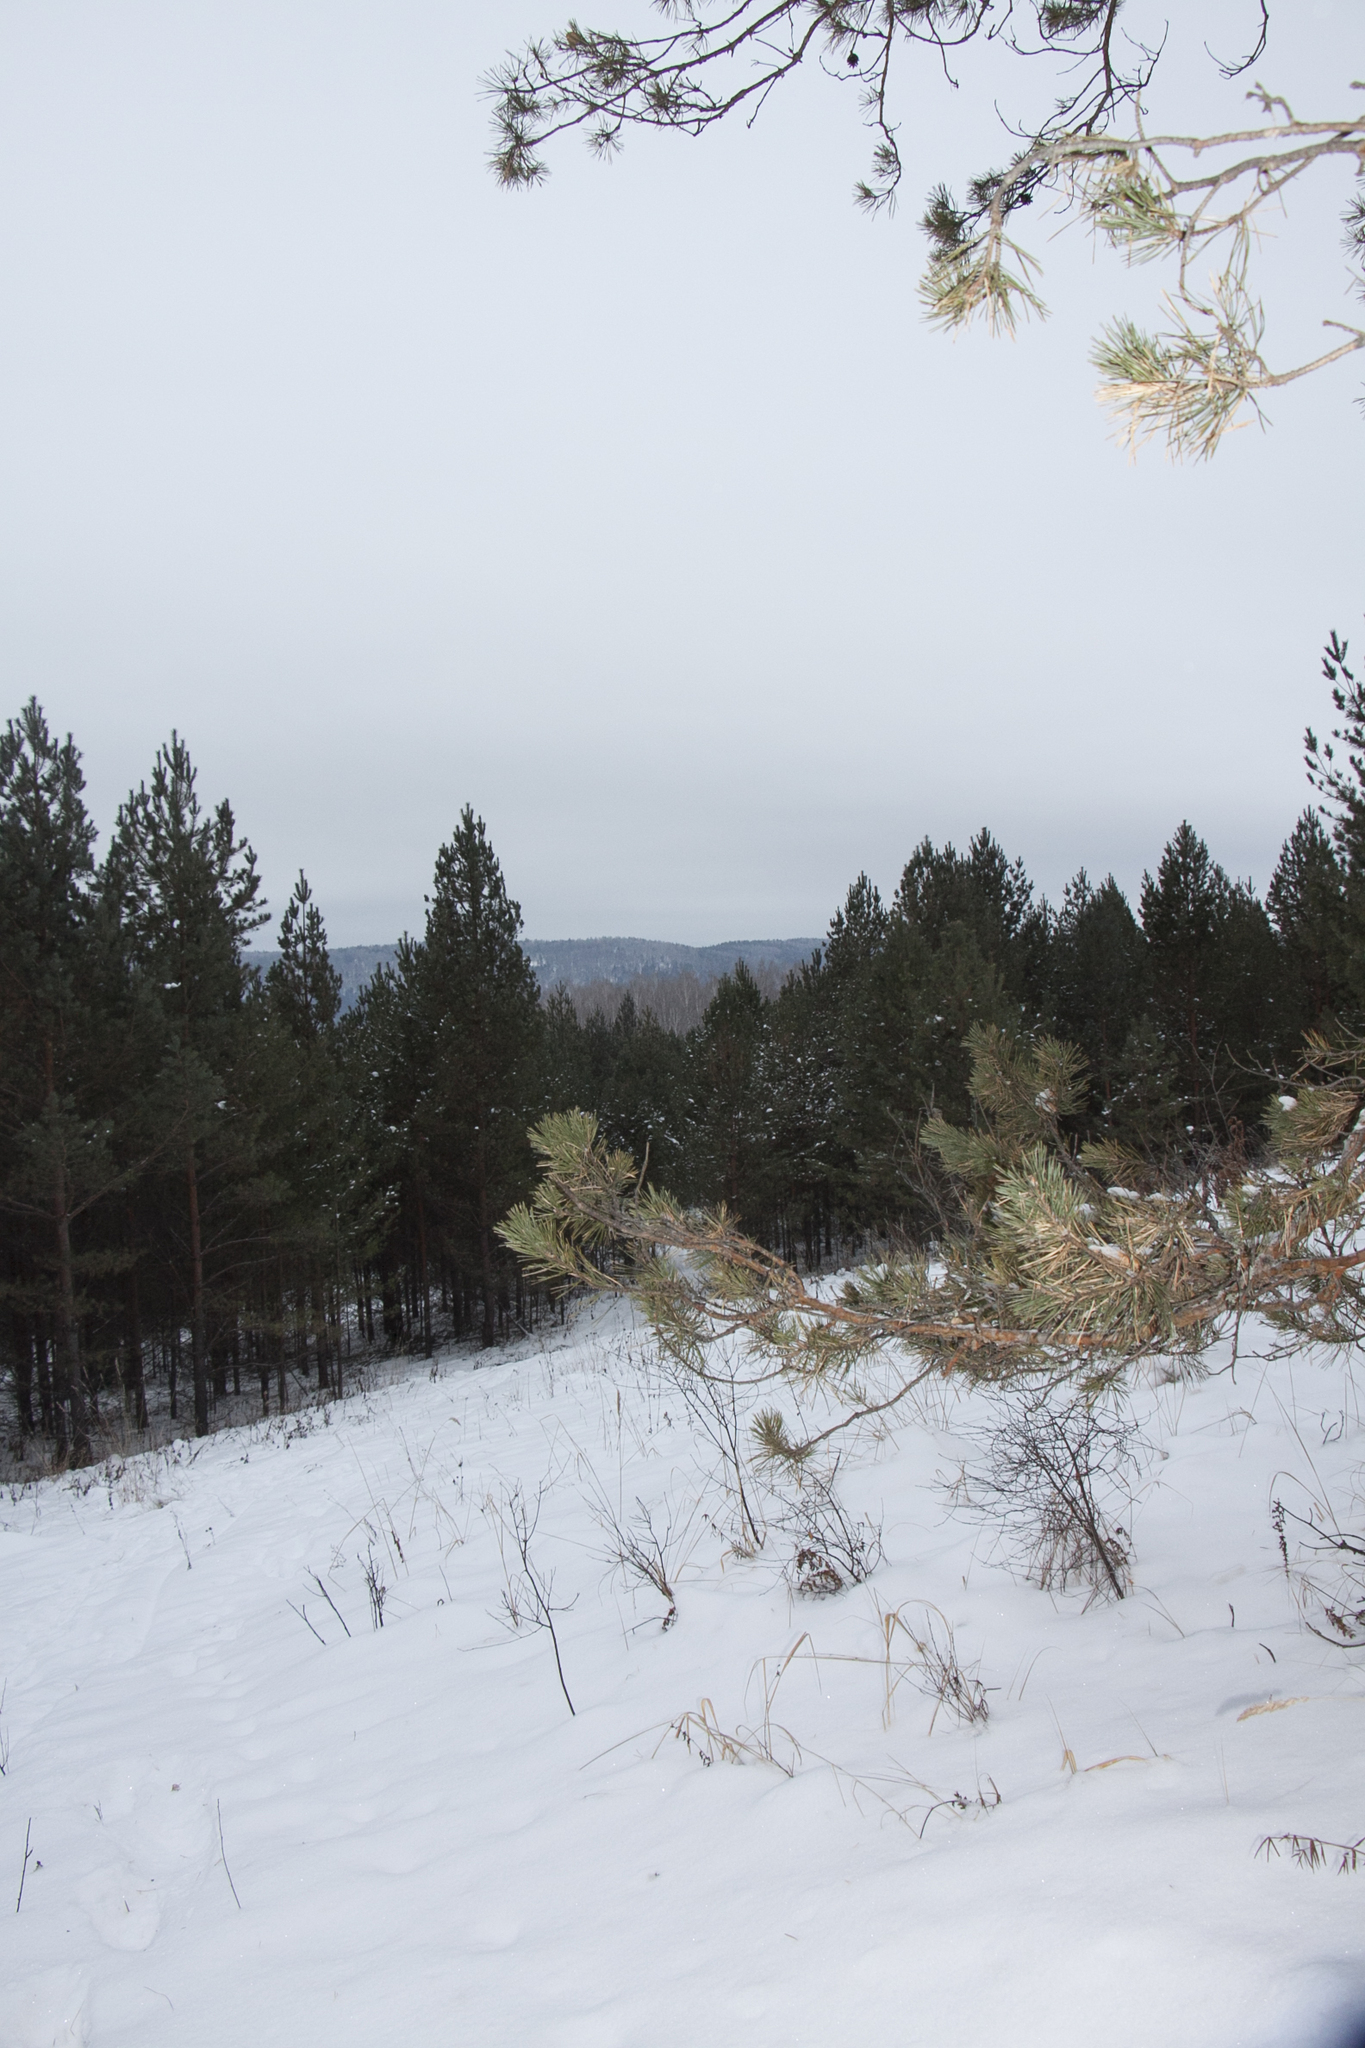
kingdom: Plantae
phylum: Tracheophyta
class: Pinopsida
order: Pinales
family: Pinaceae
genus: Pinus
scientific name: Pinus sylvestris
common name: Scots pine
